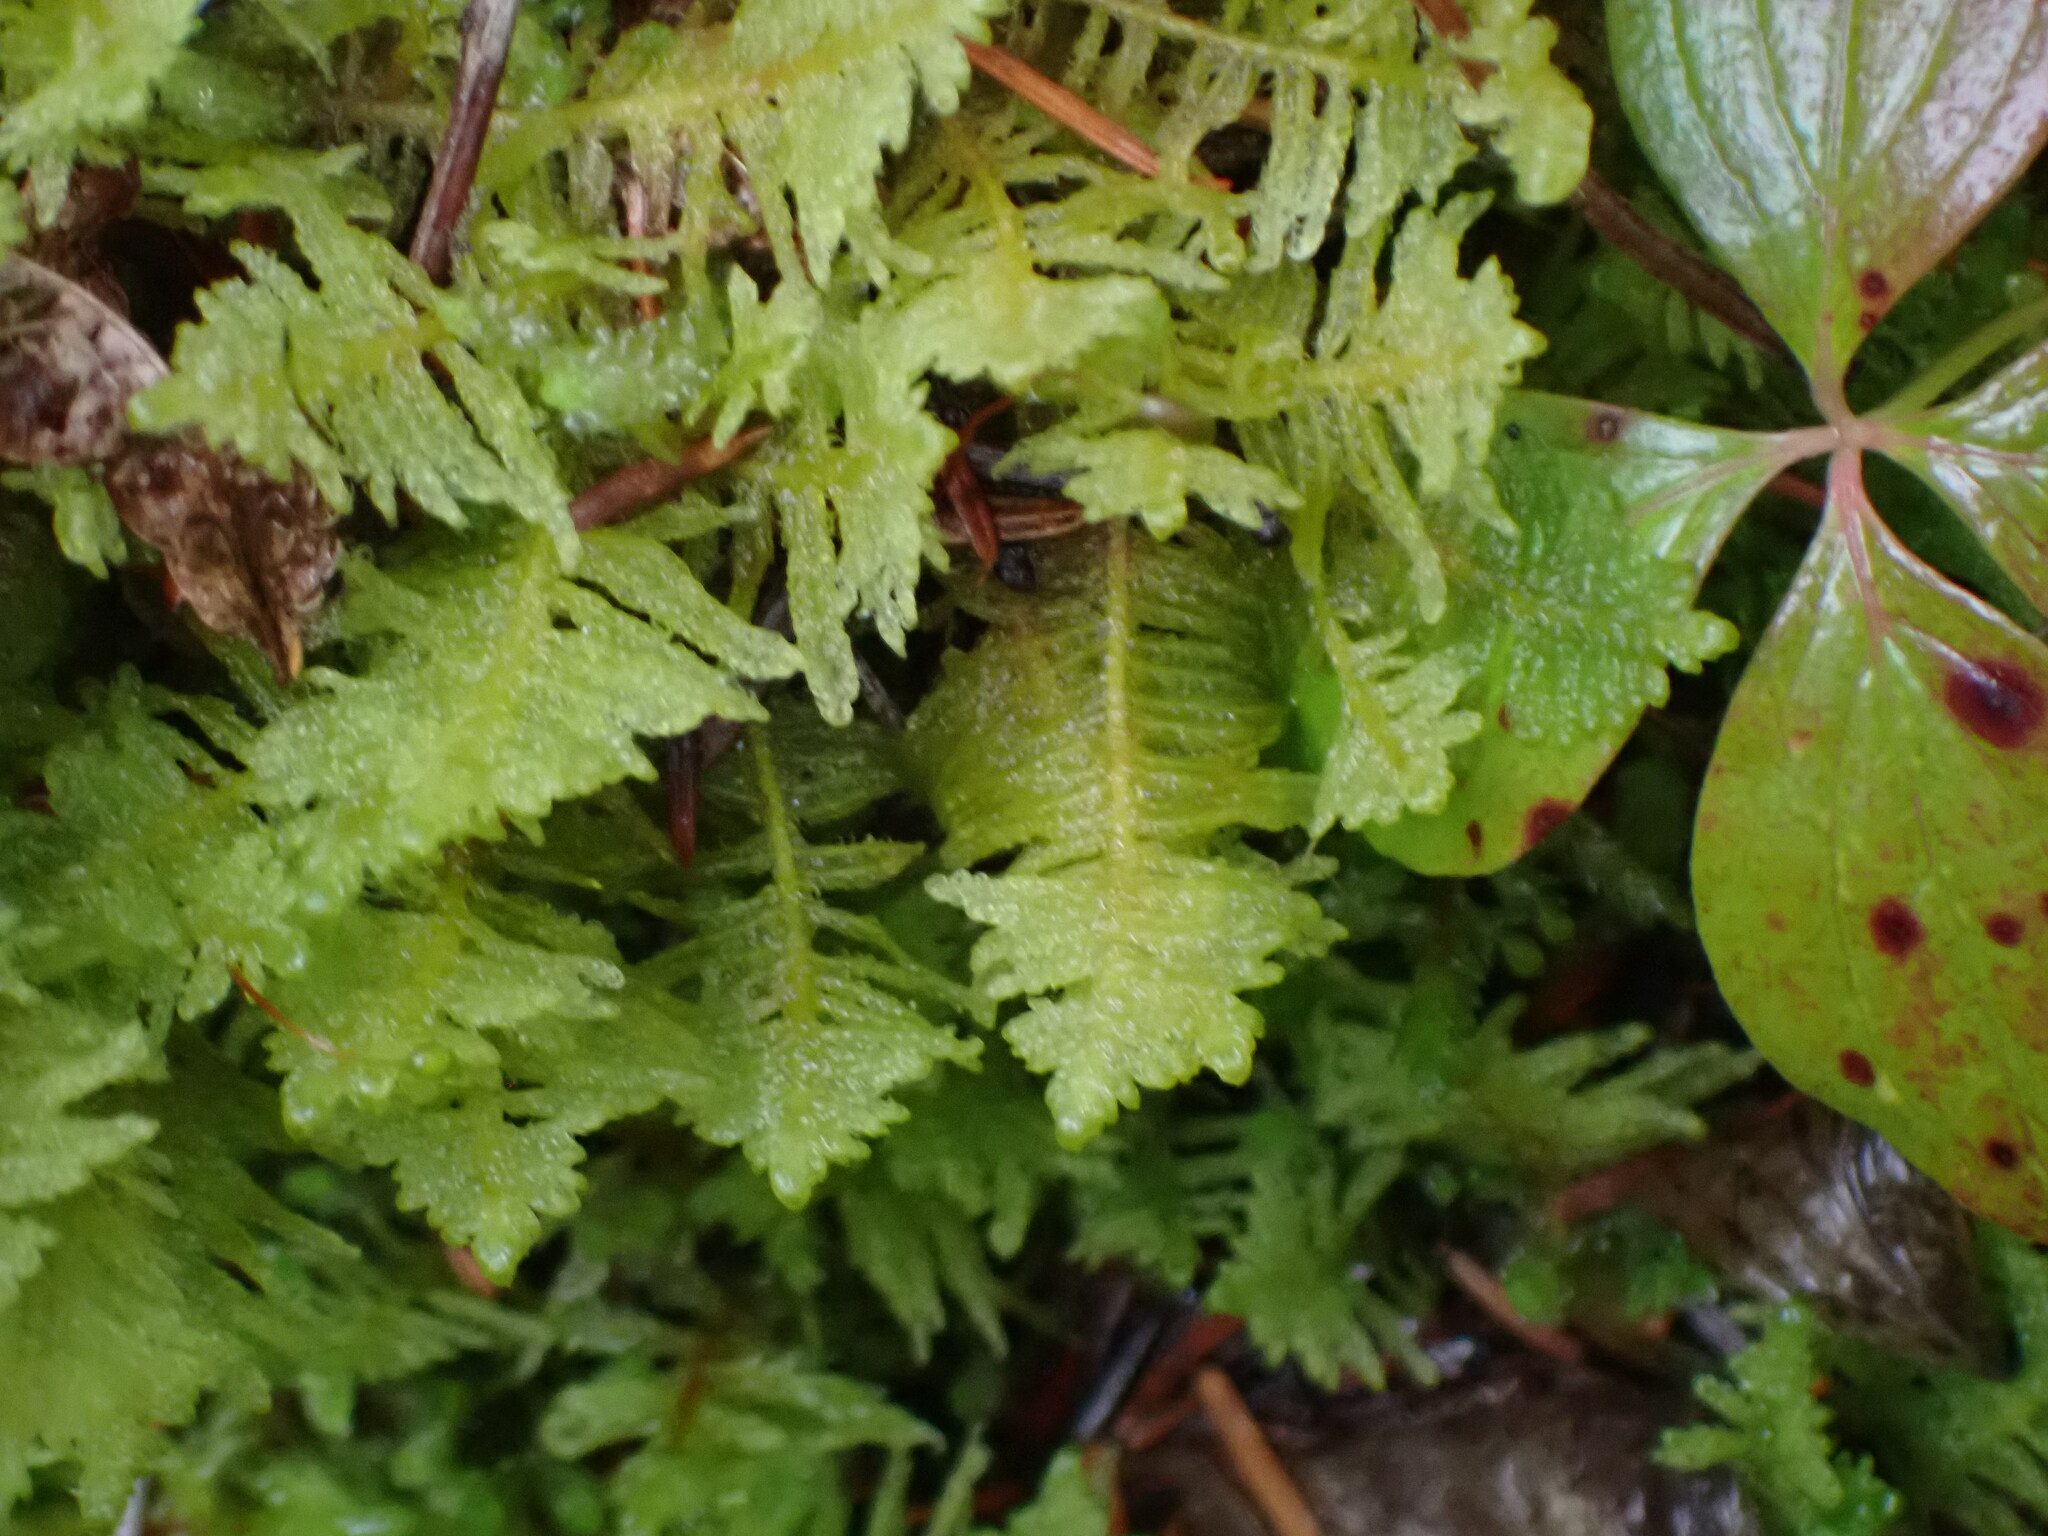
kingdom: Plantae
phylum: Bryophyta
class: Bryopsida
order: Hypnales
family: Pylaisiaceae
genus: Ptilium
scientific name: Ptilium crista-castrensis
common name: Knight's plume moss
